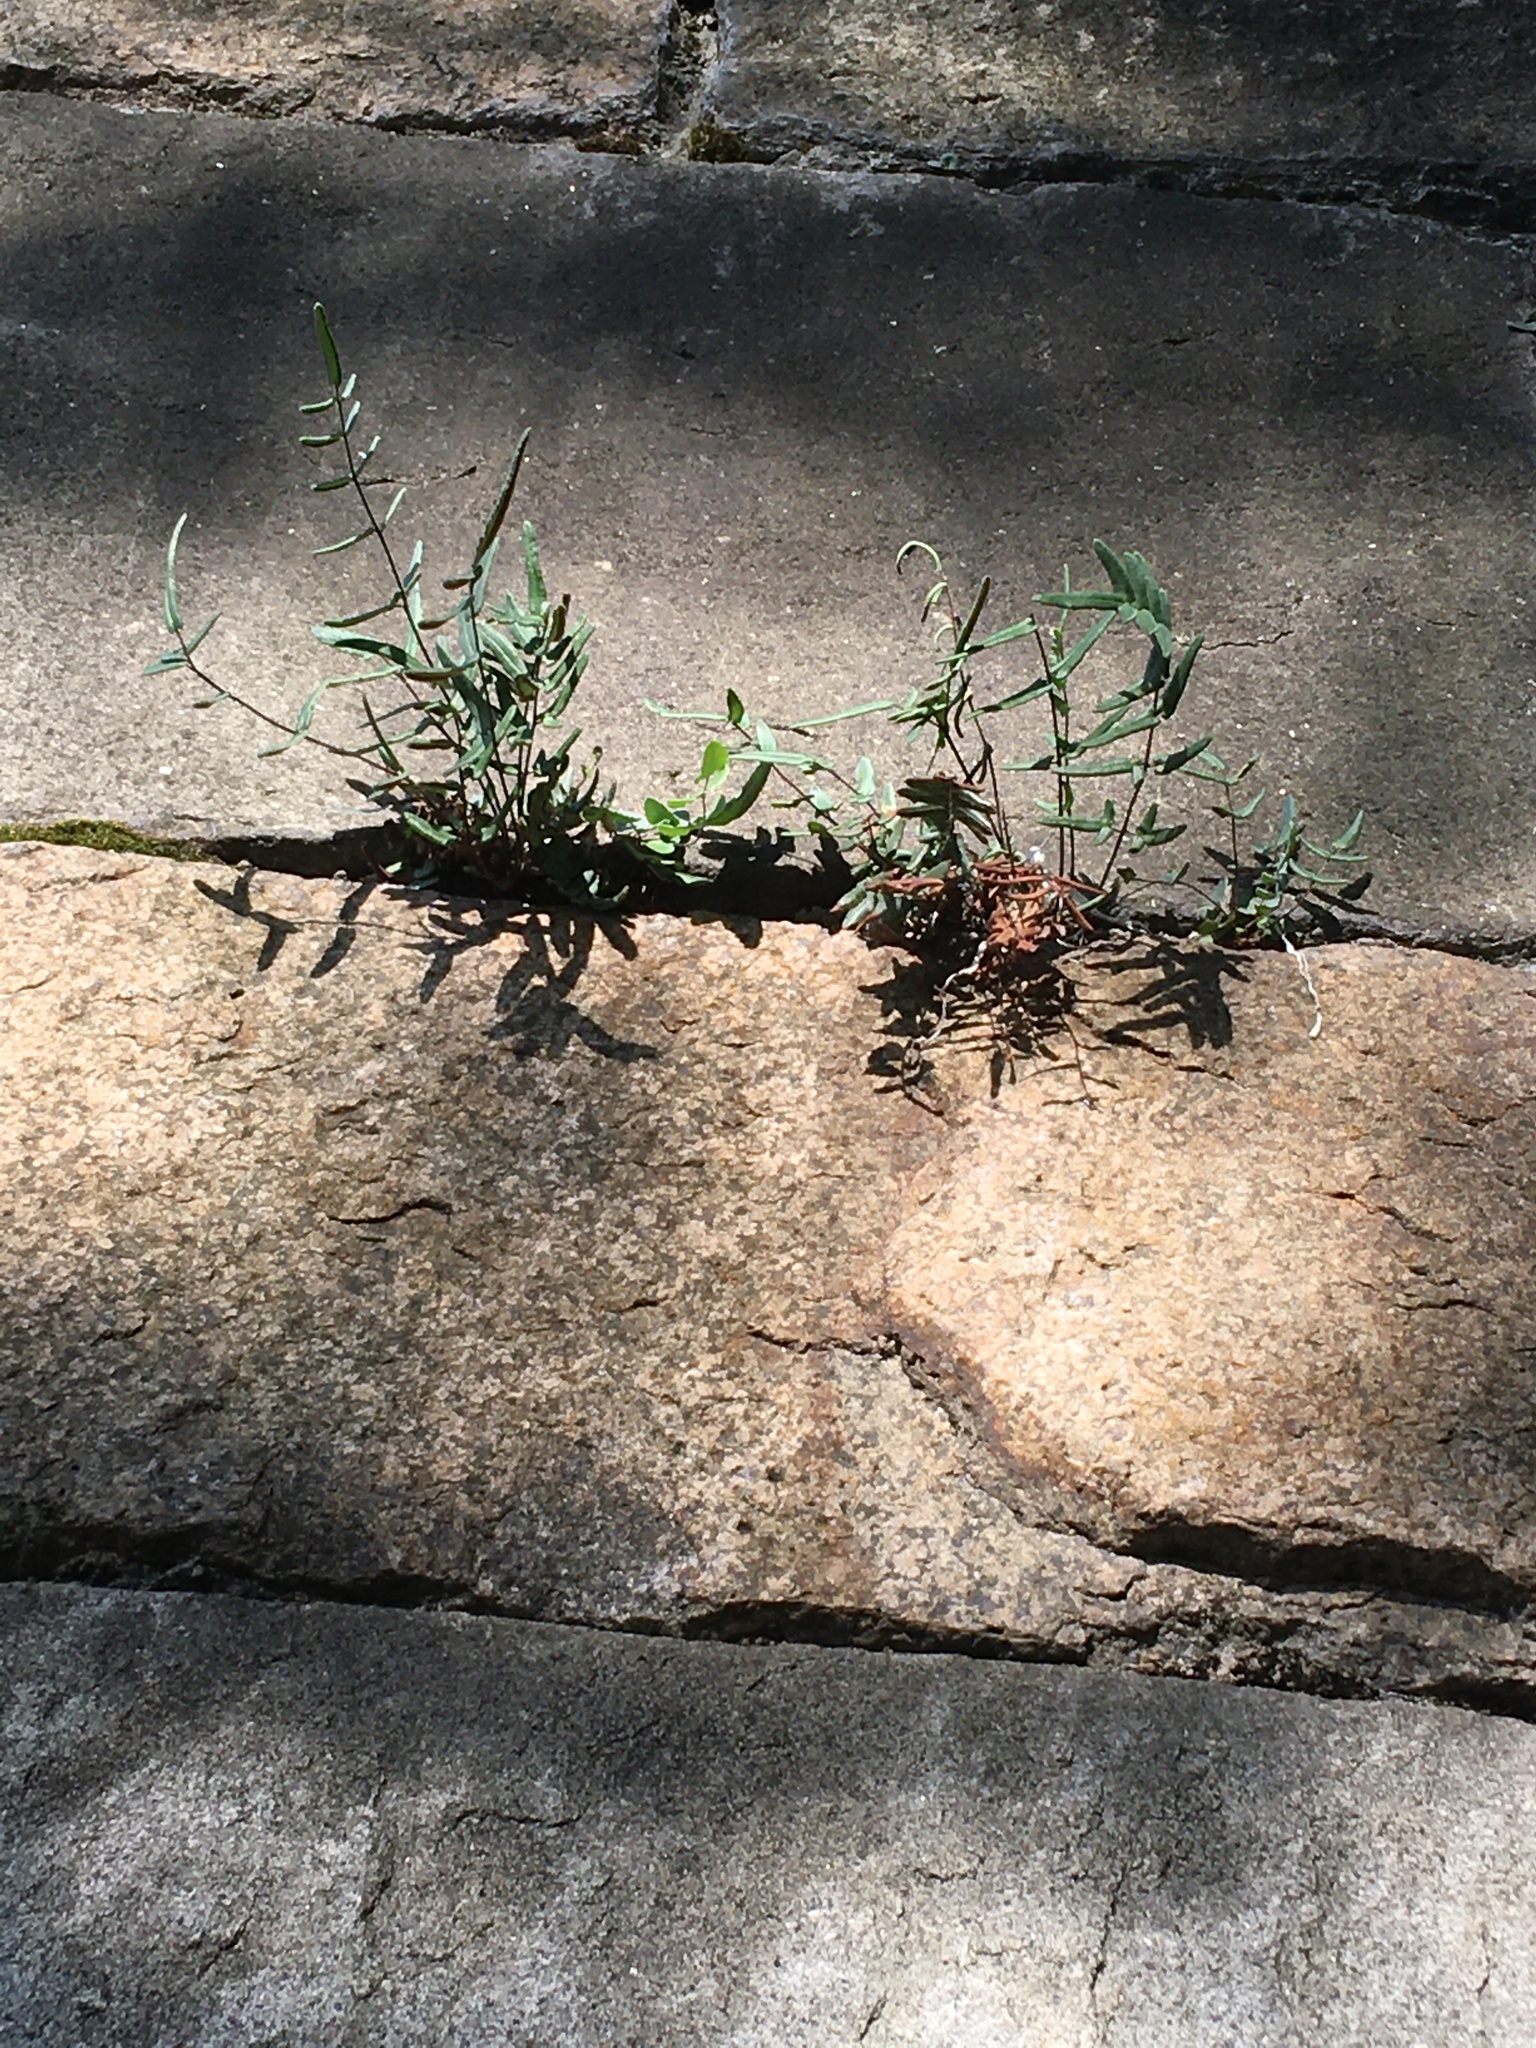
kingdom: Plantae
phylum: Tracheophyta
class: Polypodiopsida
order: Polypodiales
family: Pteridaceae
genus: Pellaea
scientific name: Pellaea atropurpurea
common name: Hairy cliffbrake
